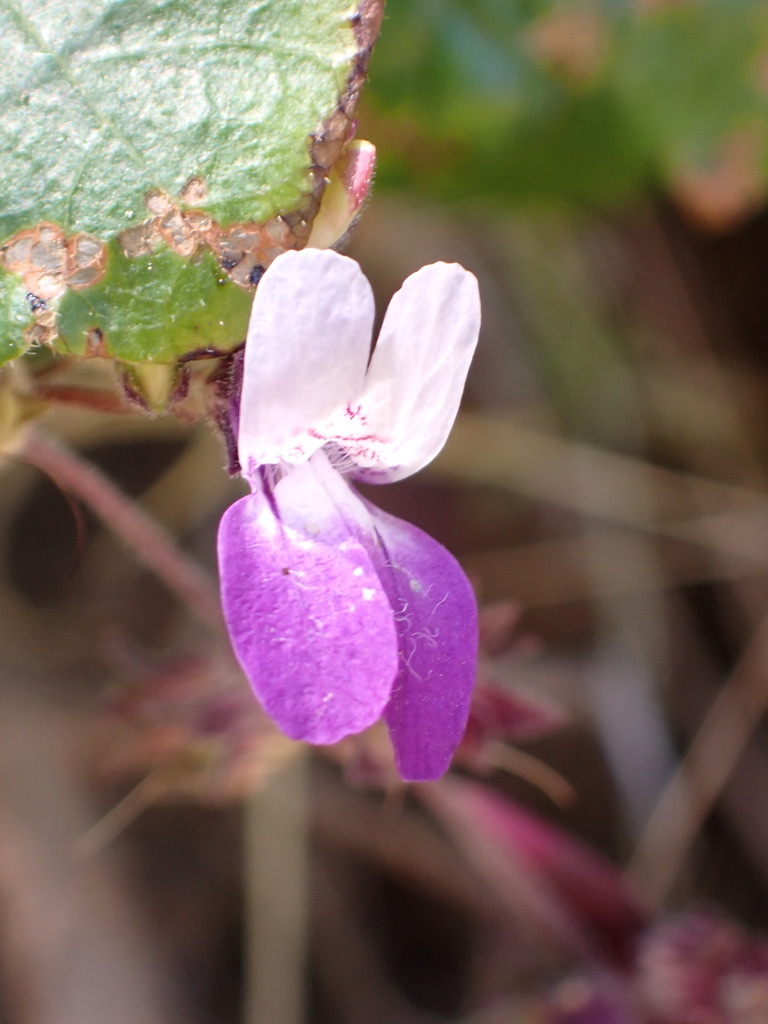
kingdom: Plantae
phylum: Tracheophyta
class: Magnoliopsida
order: Lamiales
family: Plantaginaceae
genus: Collinsia
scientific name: Collinsia heterophylla
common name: Chinese-houses
